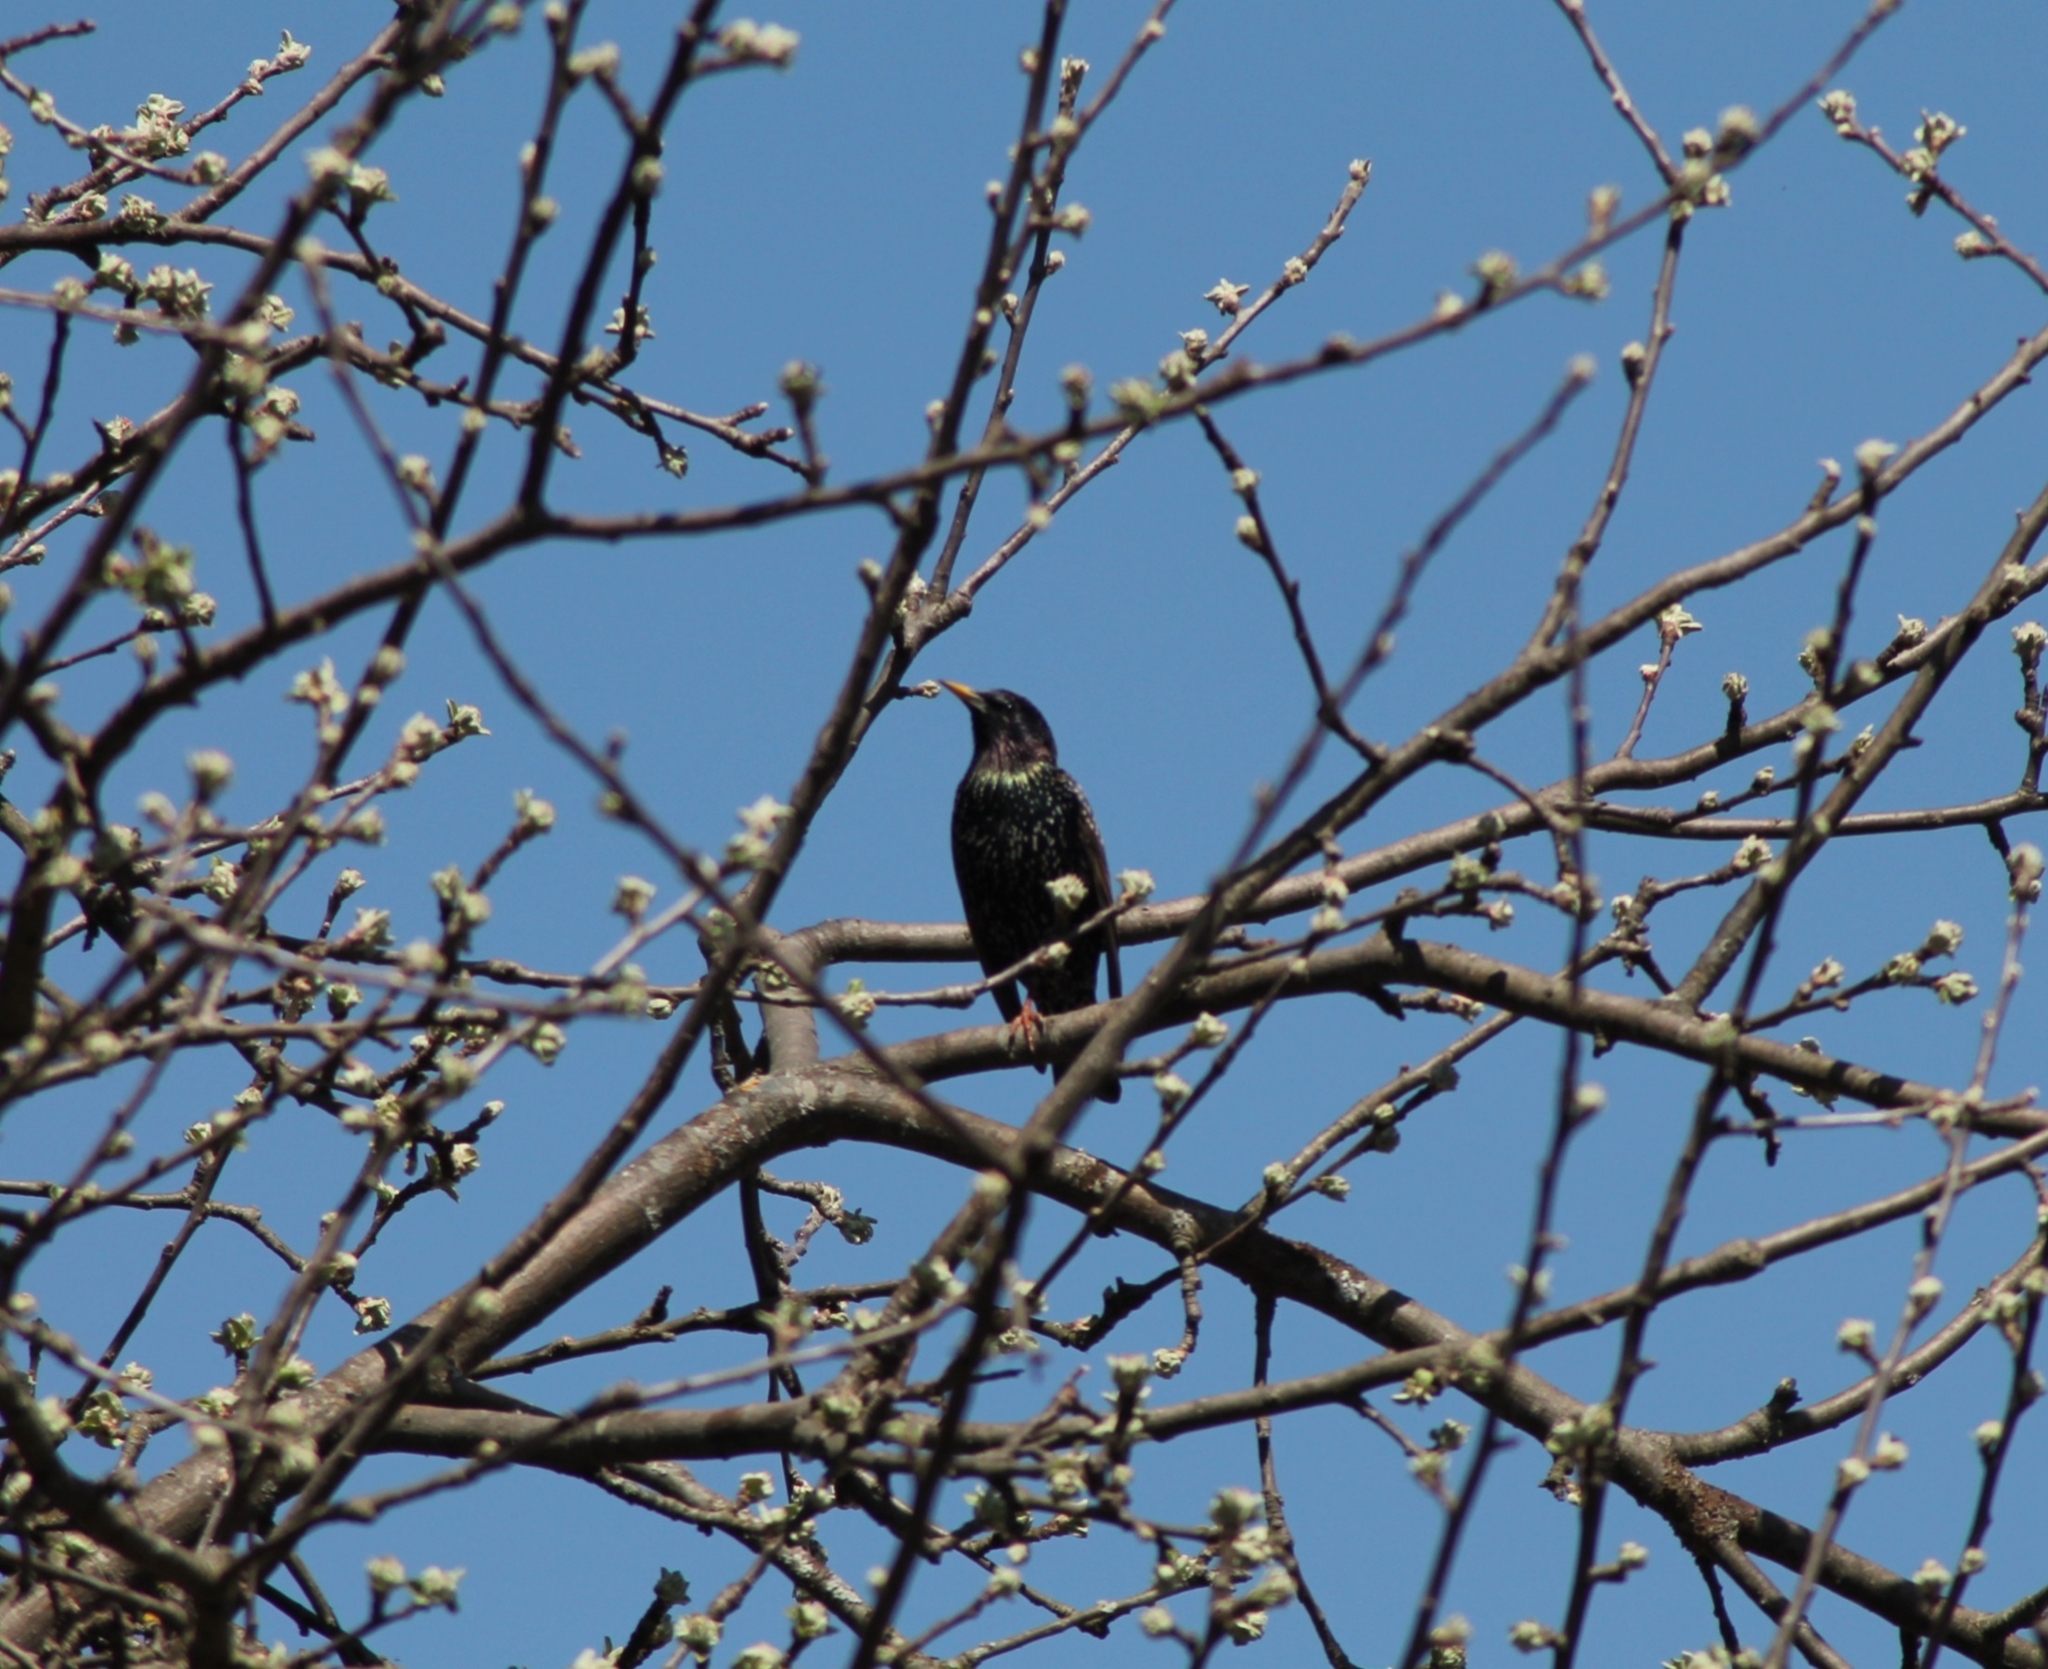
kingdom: Animalia
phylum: Chordata
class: Aves
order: Passeriformes
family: Sturnidae
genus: Sturnus
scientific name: Sturnus vulgaris
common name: Common starling
